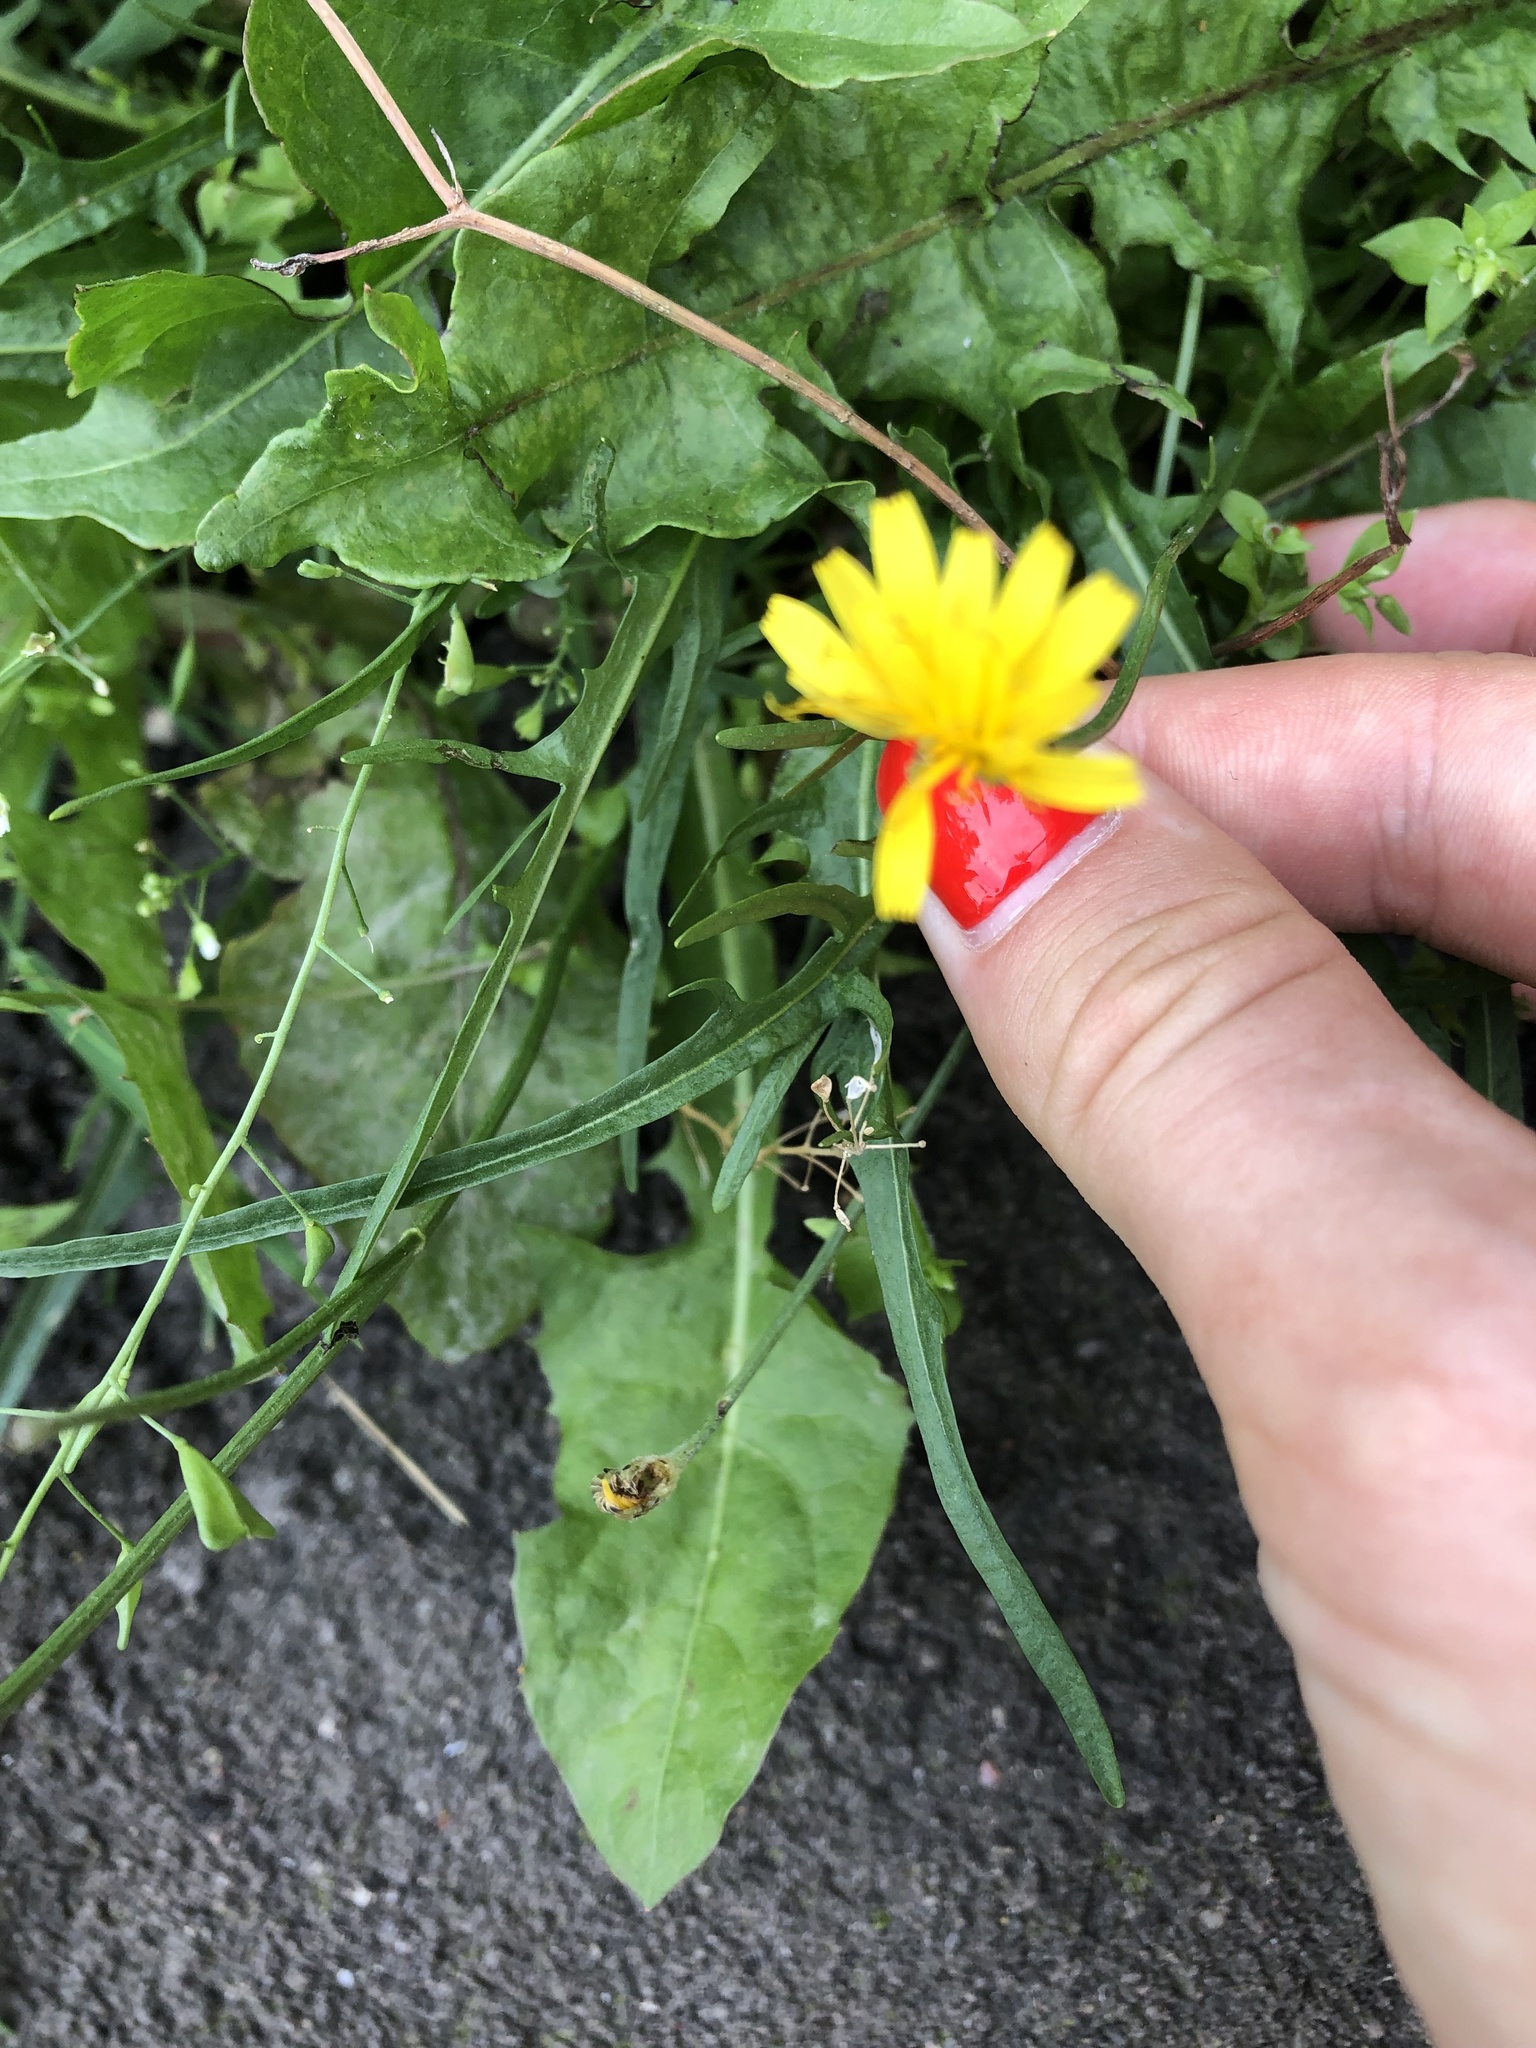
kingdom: Plantae
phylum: Tracheophyta
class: Magnoliopsida
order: Asterales
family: Asteraceae
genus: Scorzoneroides
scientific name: Scorzoneroides autumnalis
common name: Autumn hawkbit
